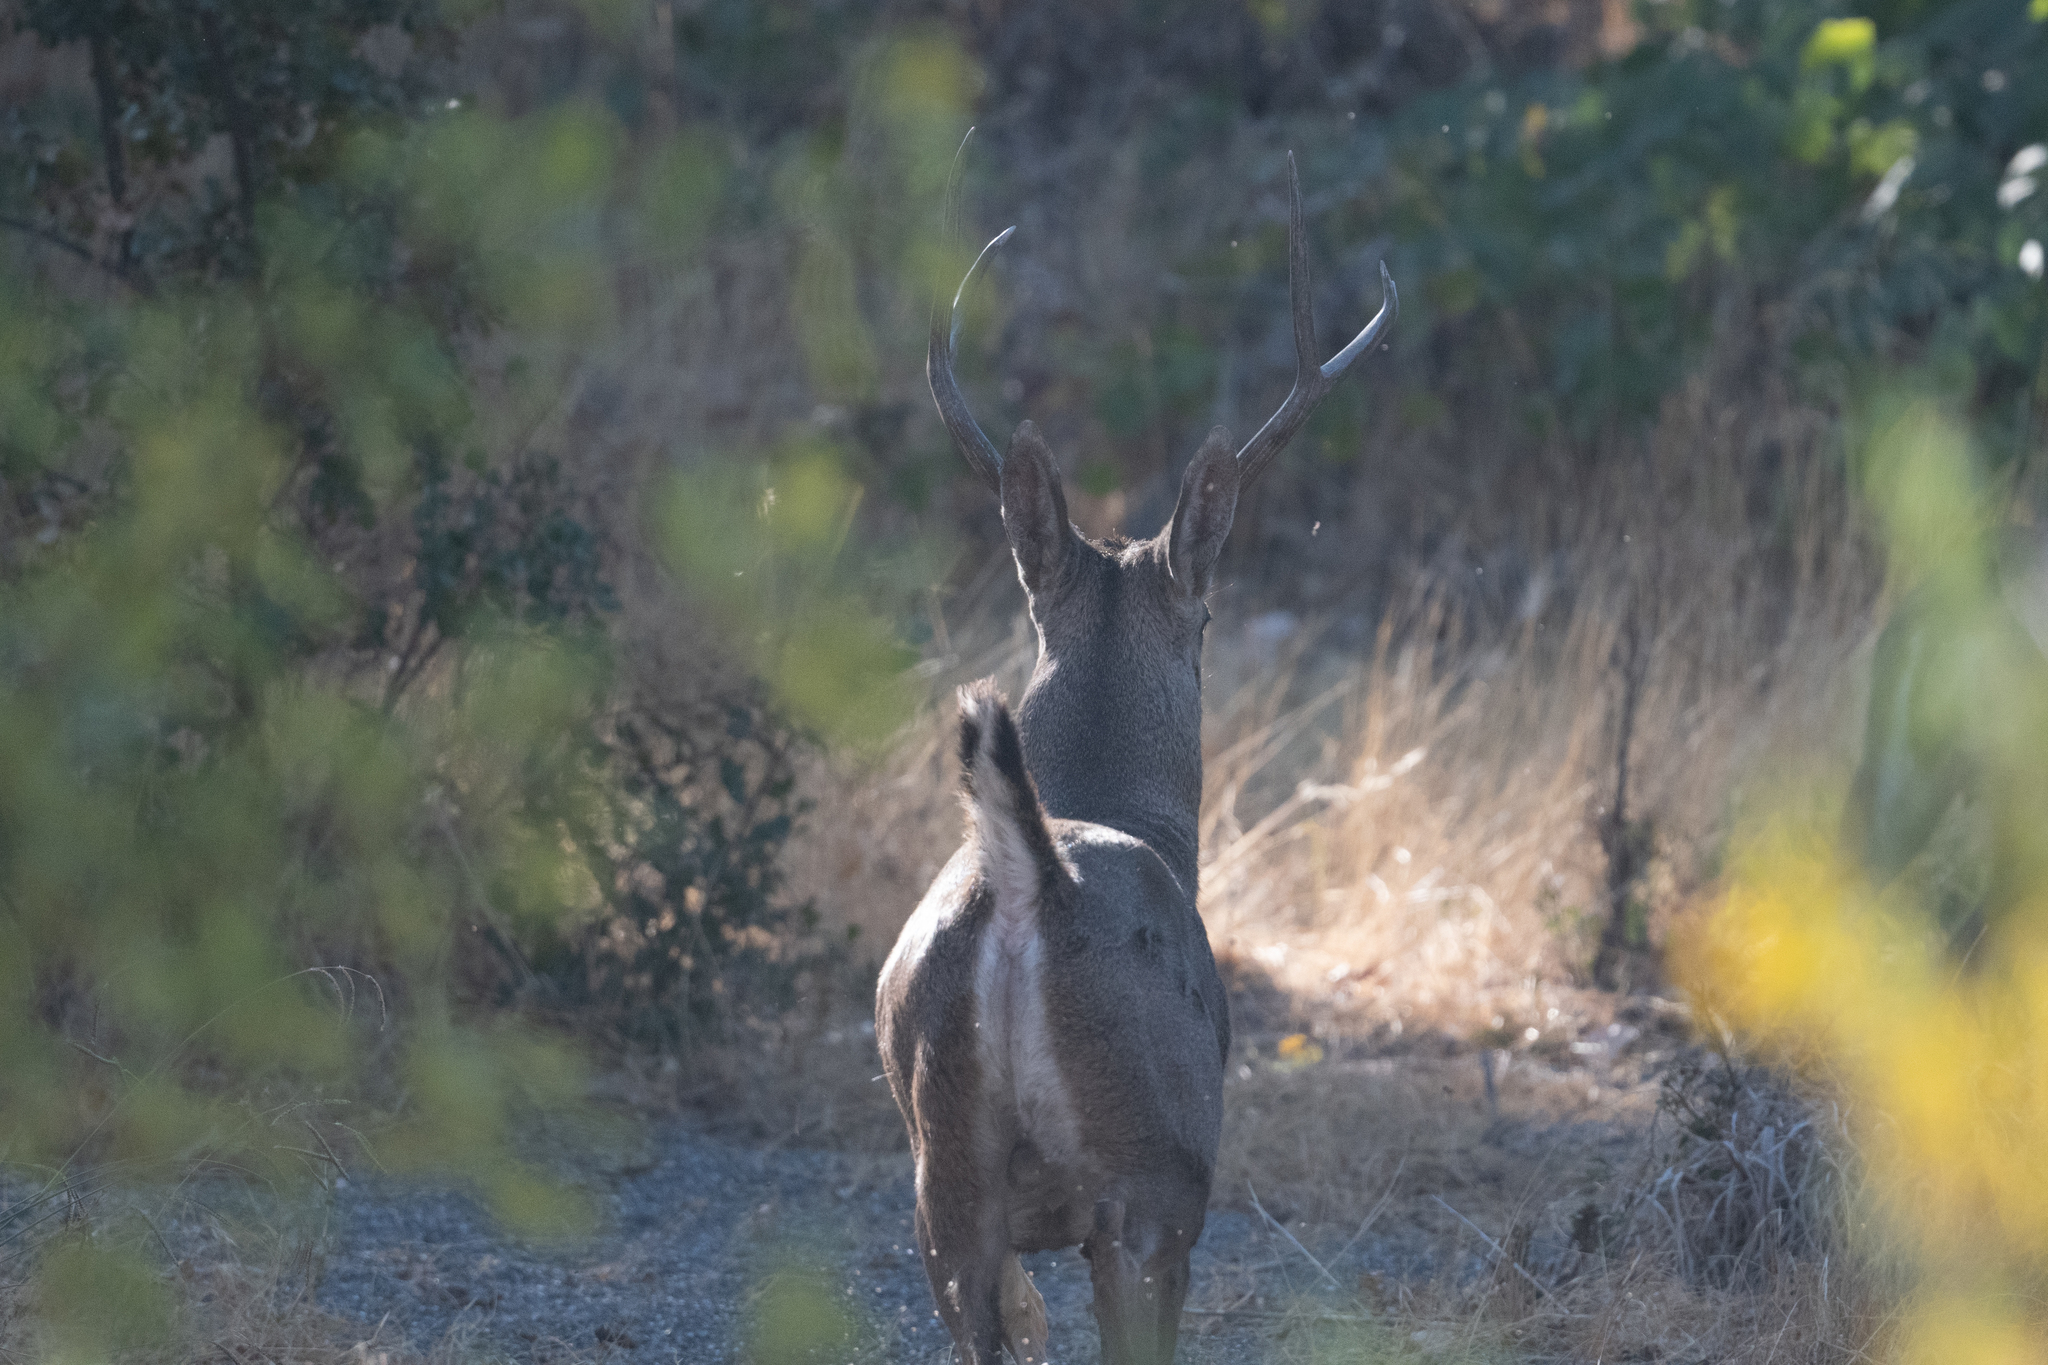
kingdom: Animalia
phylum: Chordata
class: Mammalia
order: Artiodactyla
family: Cervidae
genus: Odocoileus
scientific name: Odocoileus hemionus
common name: Mule deer
